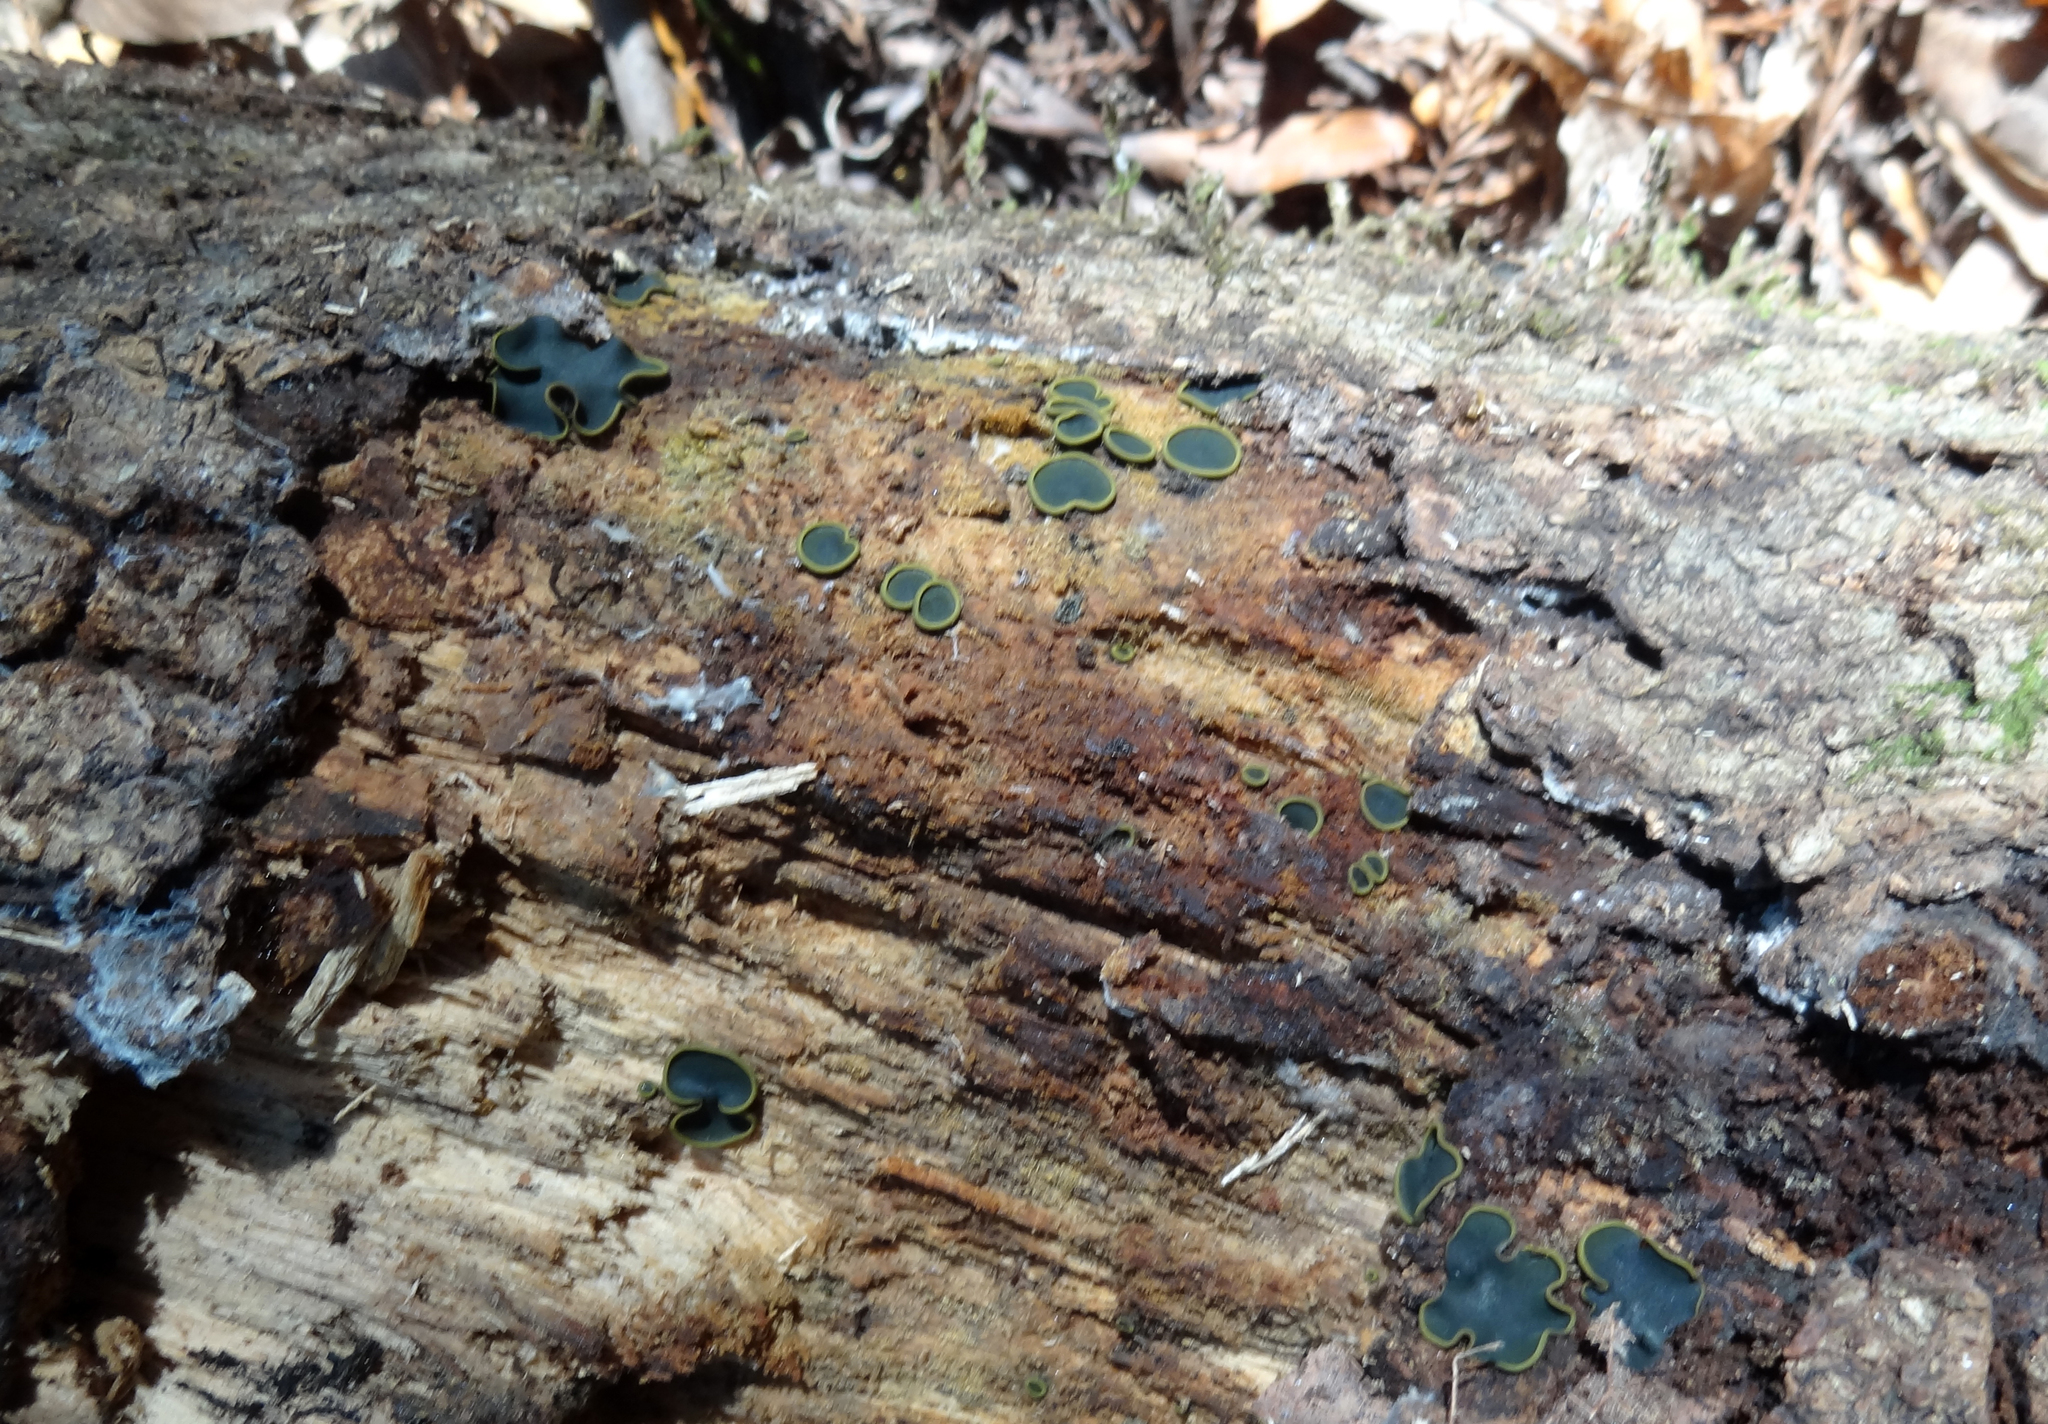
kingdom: Fungi
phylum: Ascomycota
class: Dothideomycetes
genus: Catinella
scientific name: Catinella olivacea
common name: Olive salver
